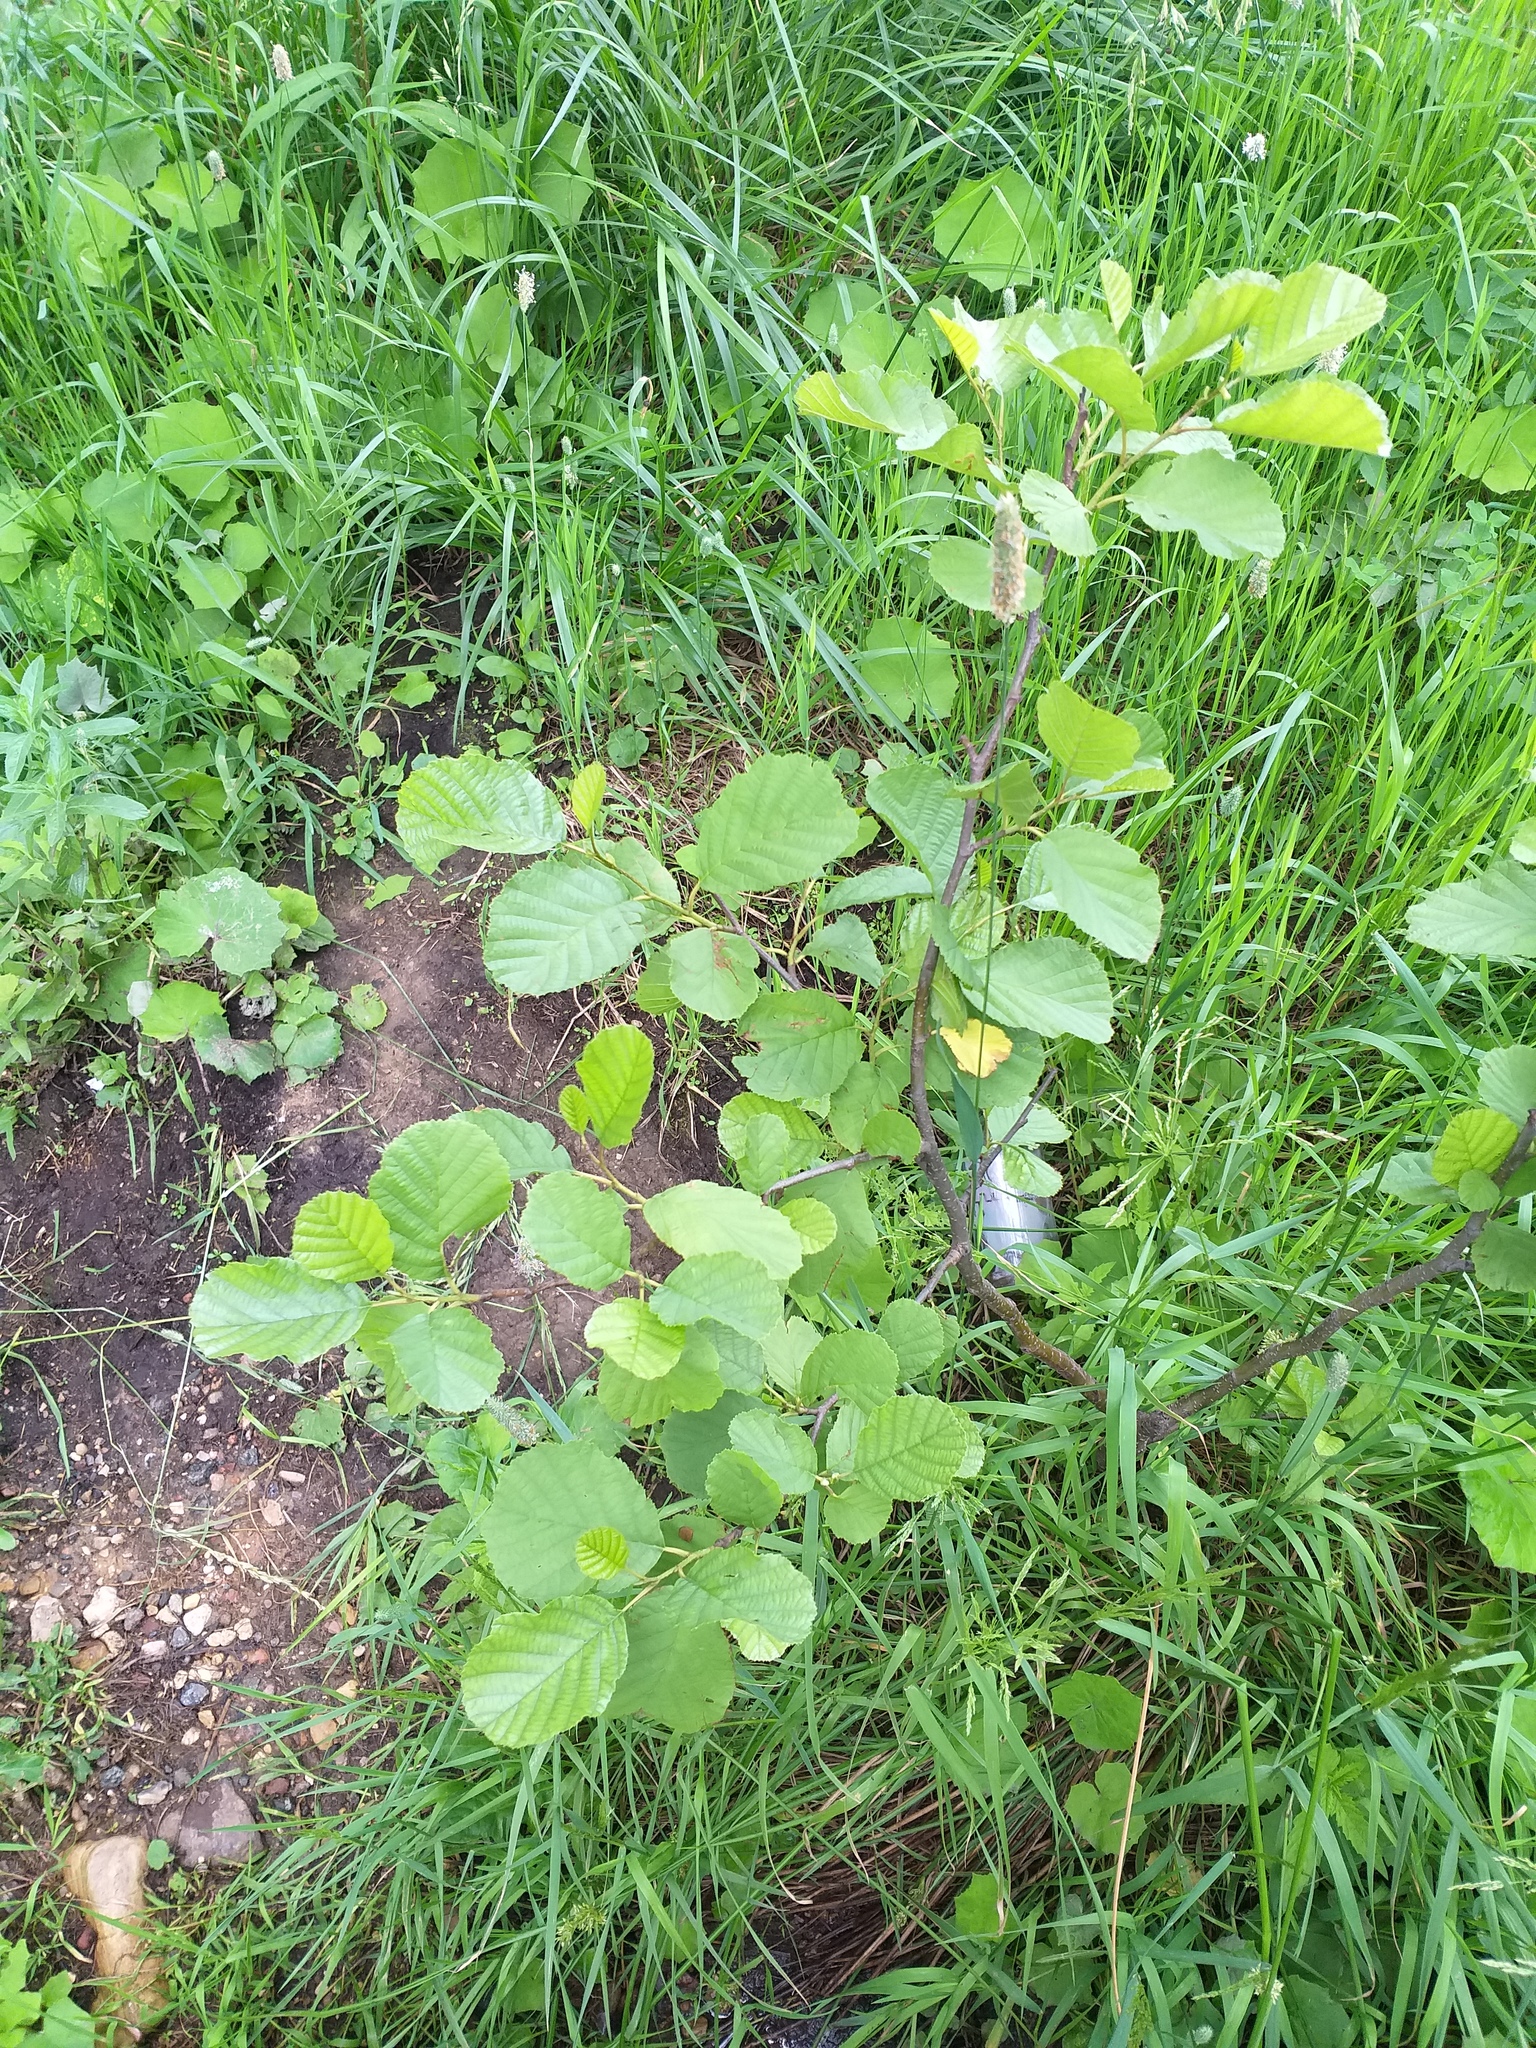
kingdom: Plantae
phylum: Tracheophyta
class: Magnoliopsida
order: Fagales
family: Betulaceae
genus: Alnus
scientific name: Alnus glutinosa
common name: Black alder
